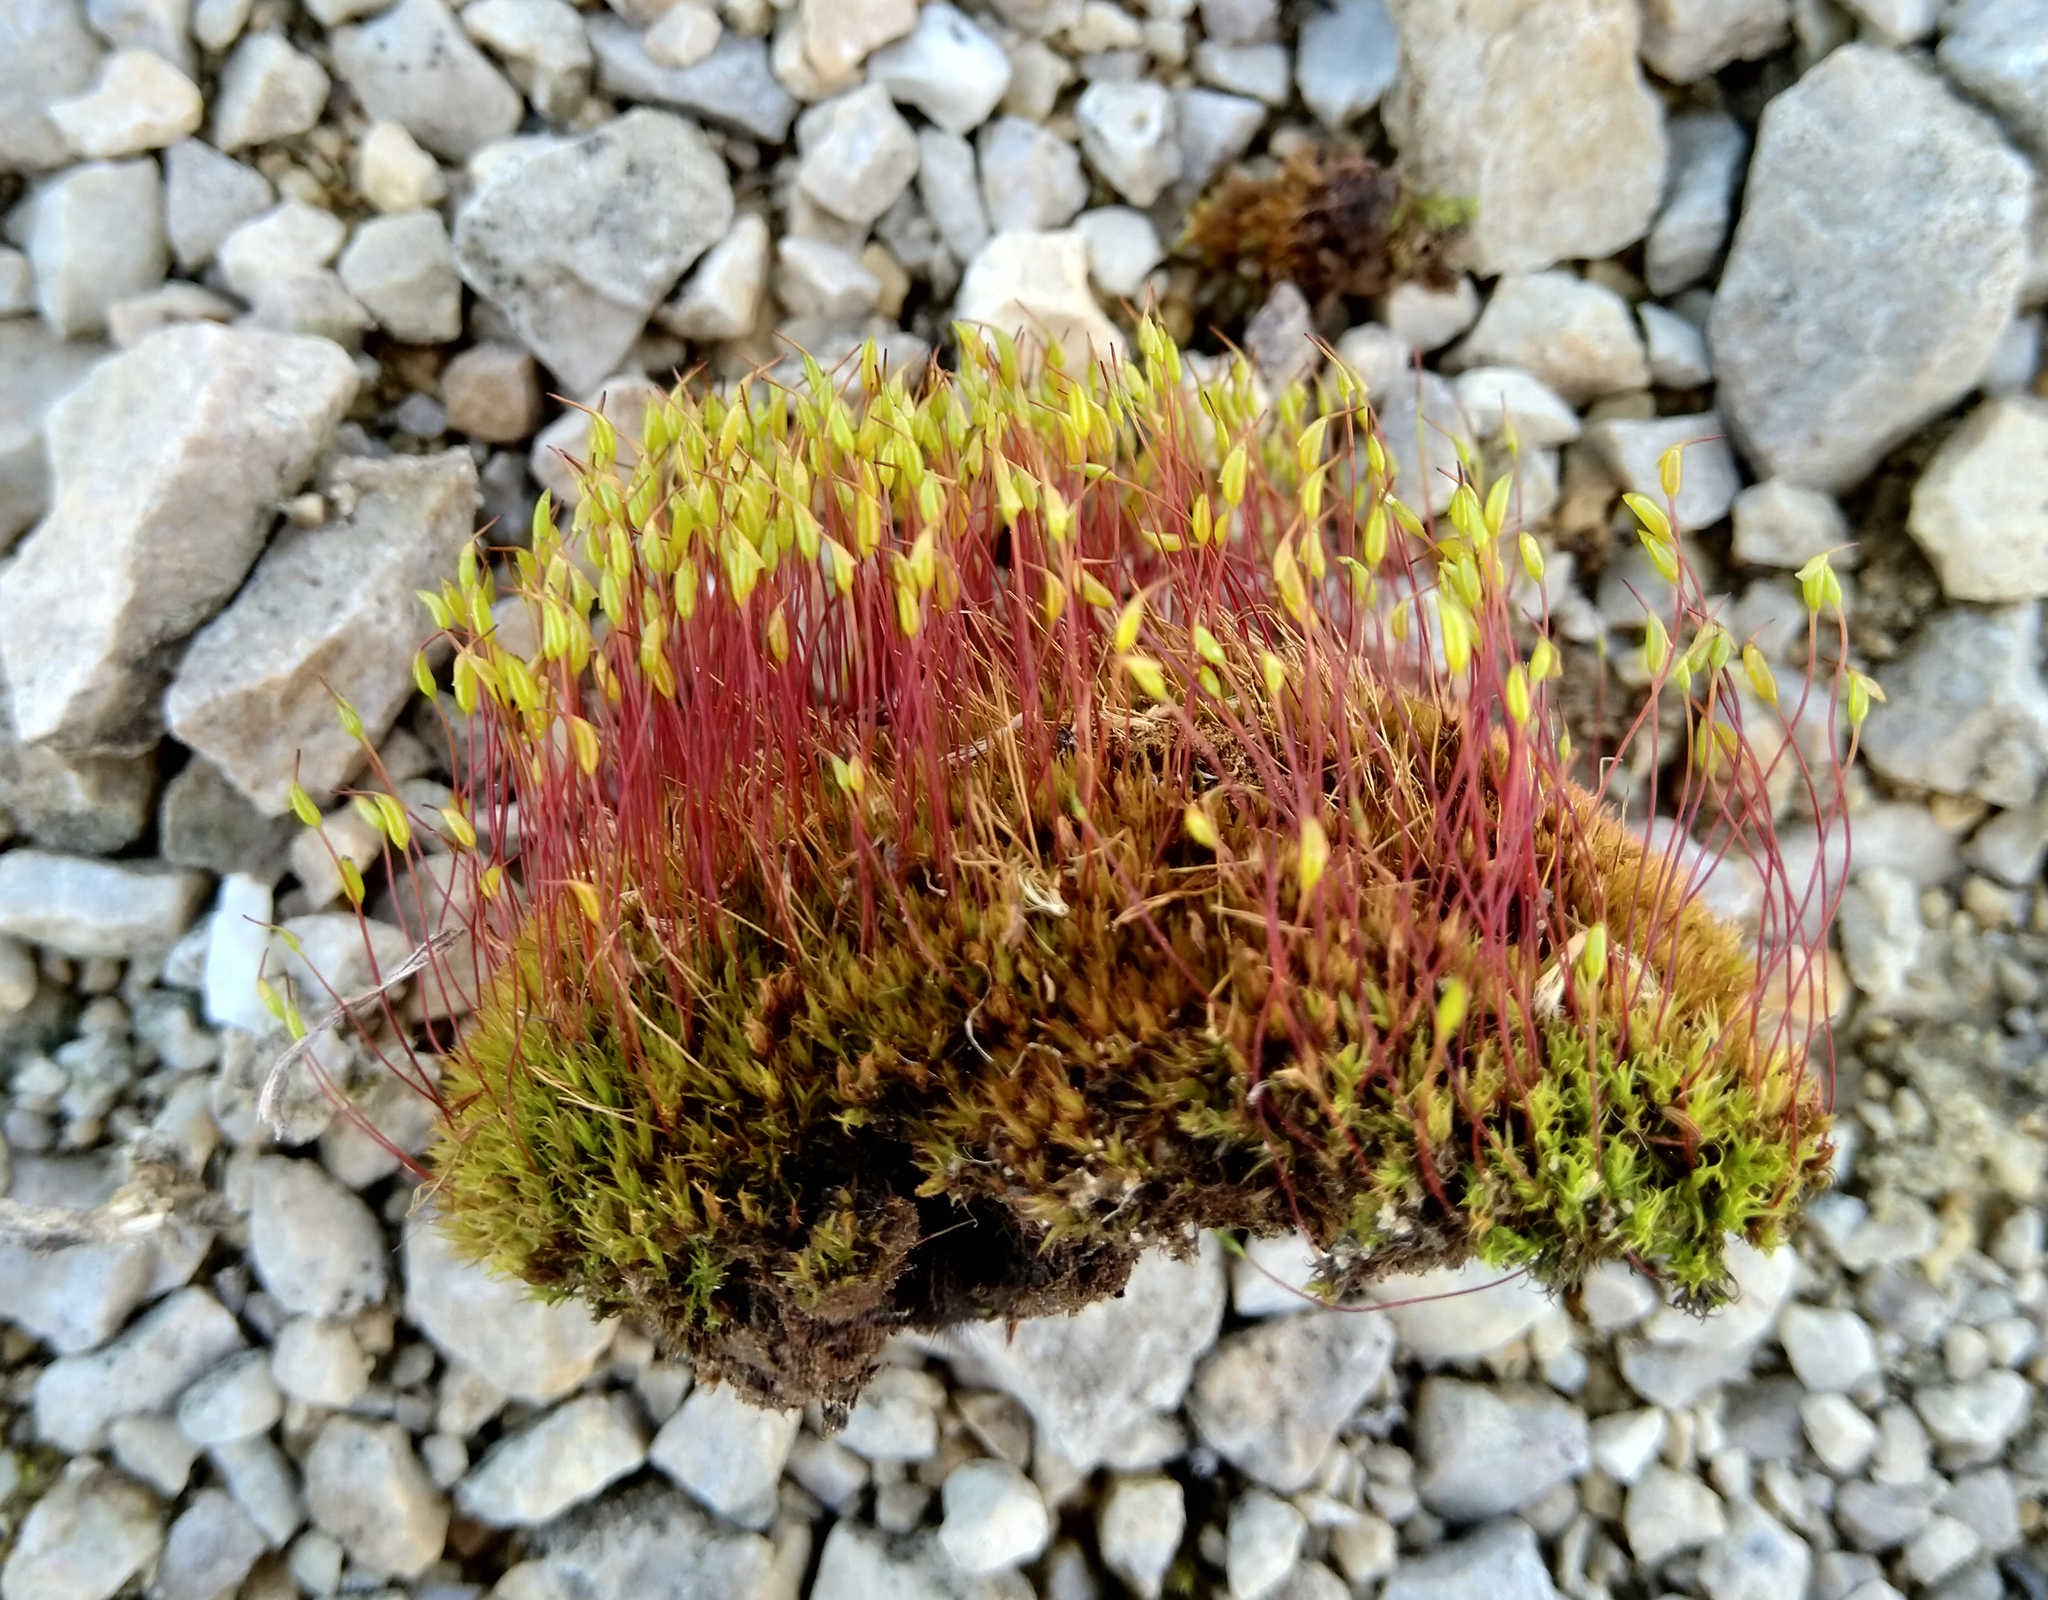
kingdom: Plantae
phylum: Bryophyta
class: Bryopsida
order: Dicranales
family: Ditrichaceae
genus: Ceratodon
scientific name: Ceratodon purpureus
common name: Redshank
